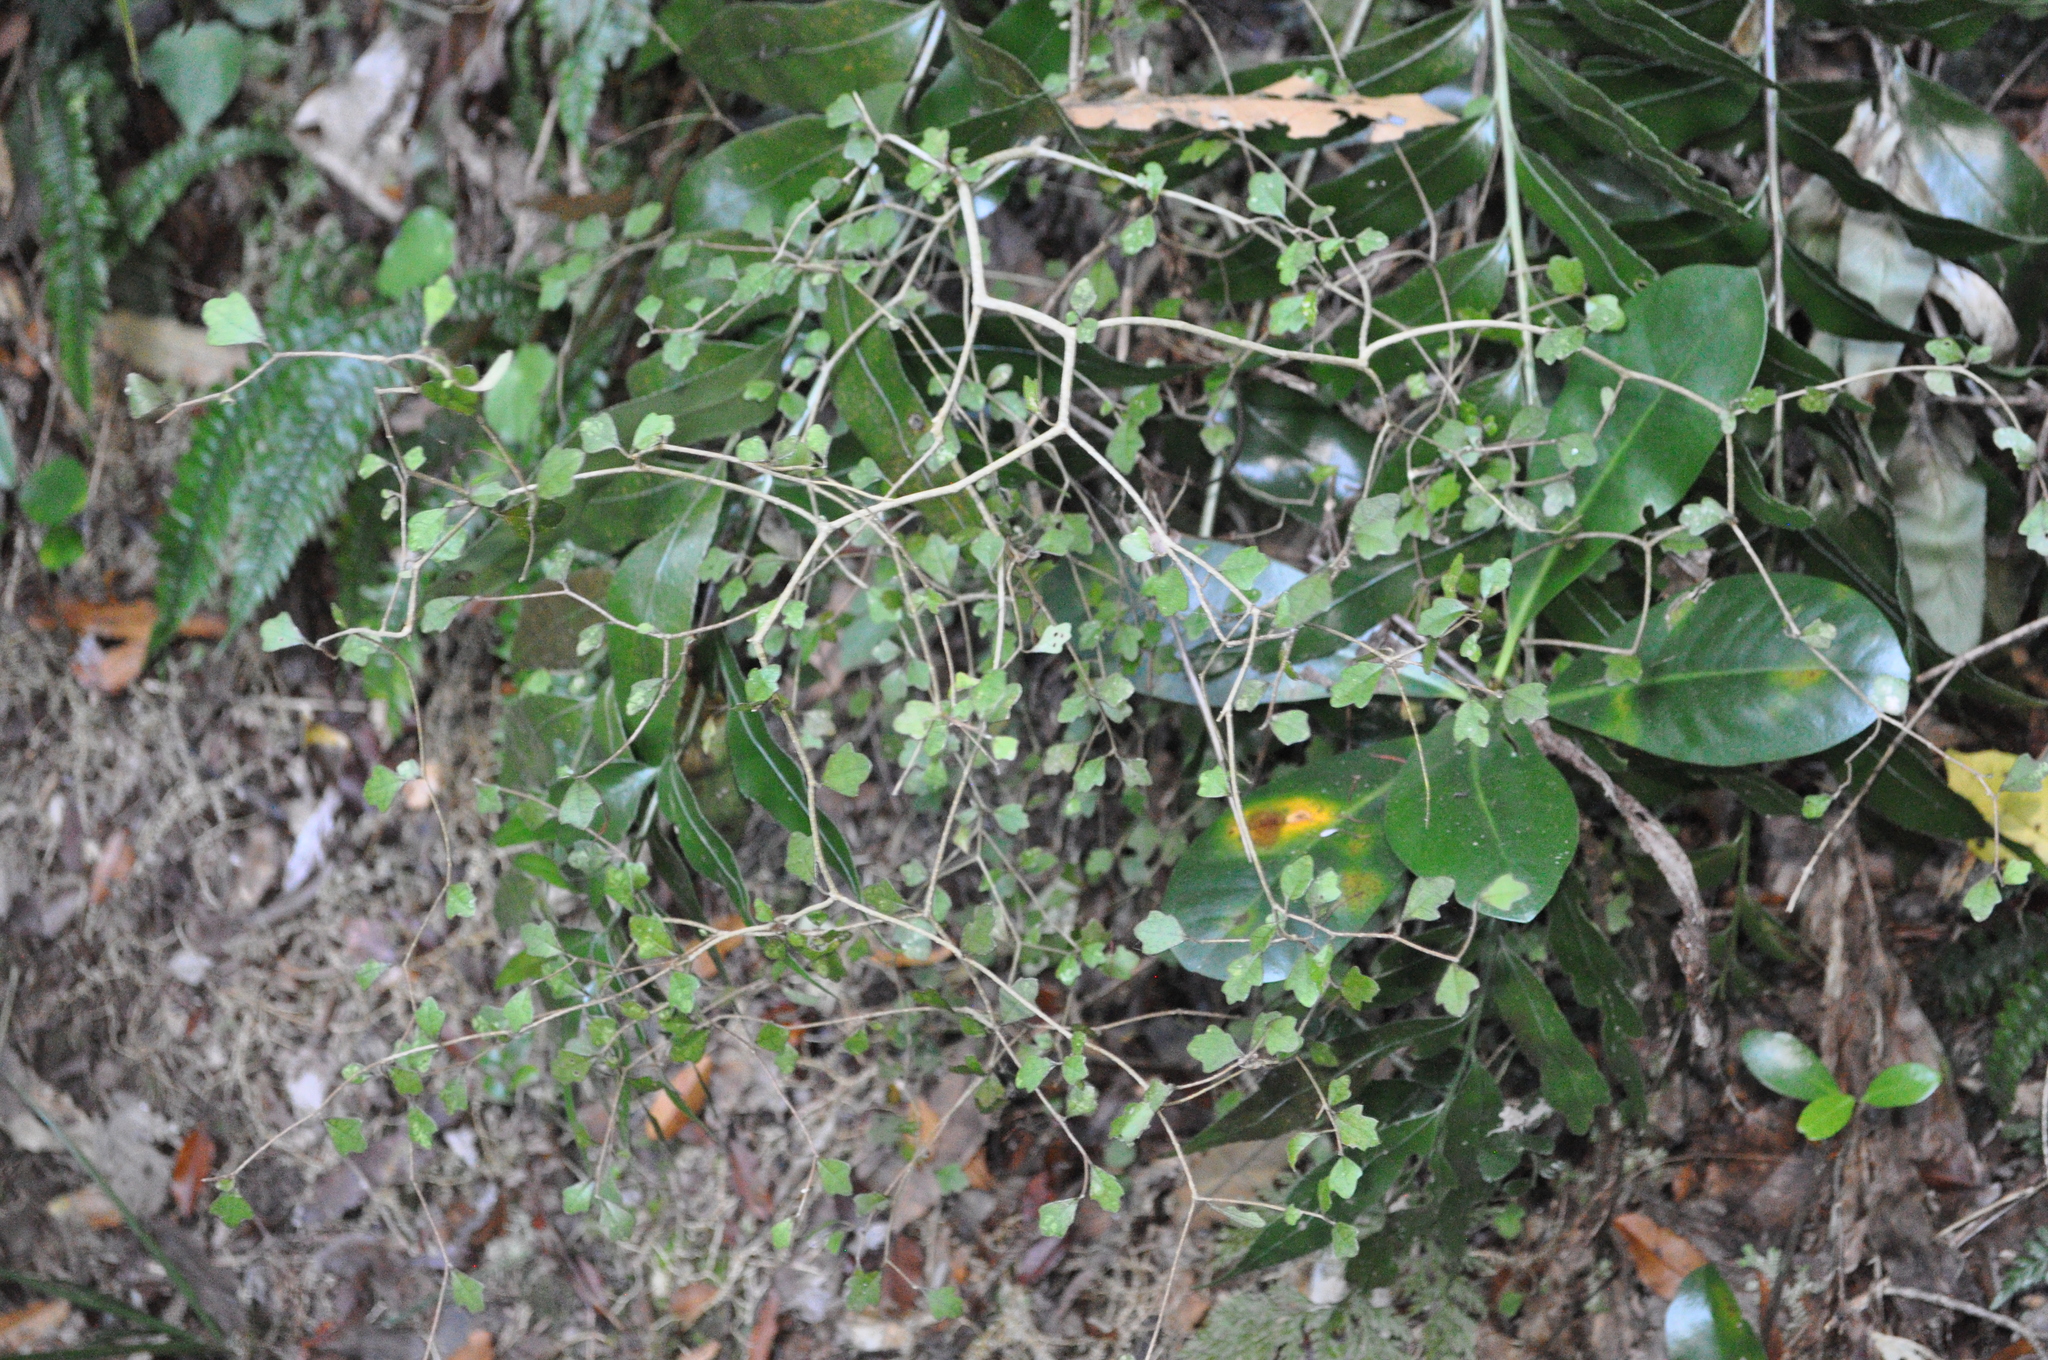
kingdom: Plantae
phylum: Tracheophyta
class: Magnoliopsida
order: Apiales
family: Pennantiaceae
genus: Pennantia
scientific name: Pennantia corymbosa
